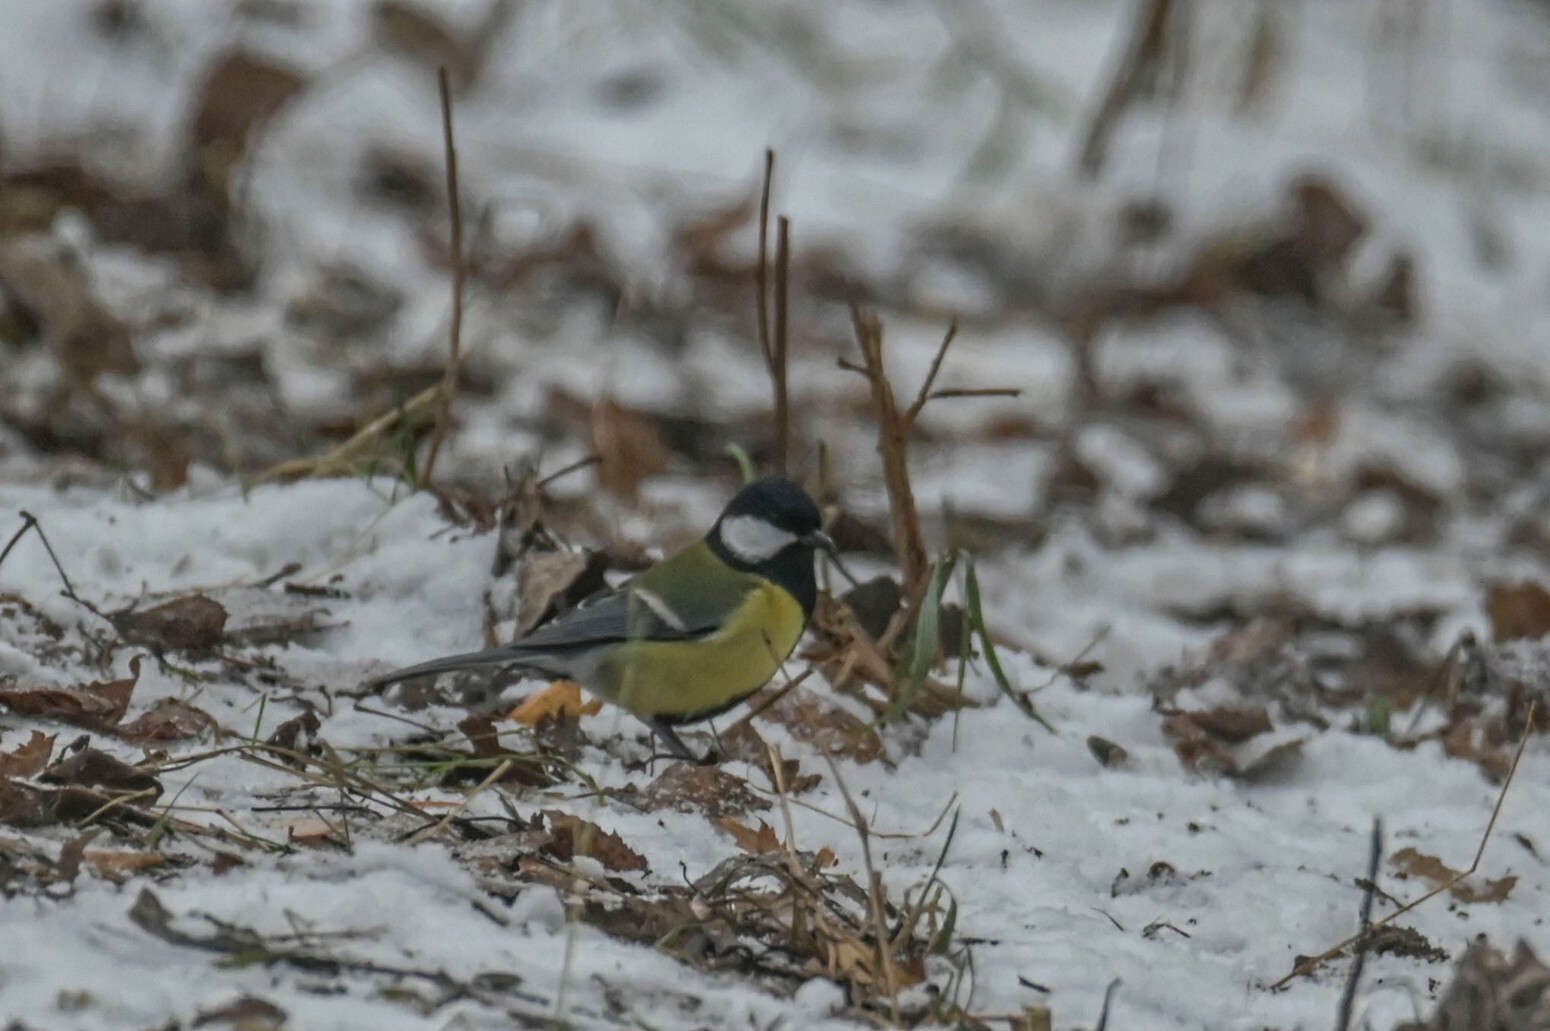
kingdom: Animalia
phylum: Chordata
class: Aves
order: Passeriformes
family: Paridae
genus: Parus
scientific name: Parus major
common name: Great tit
